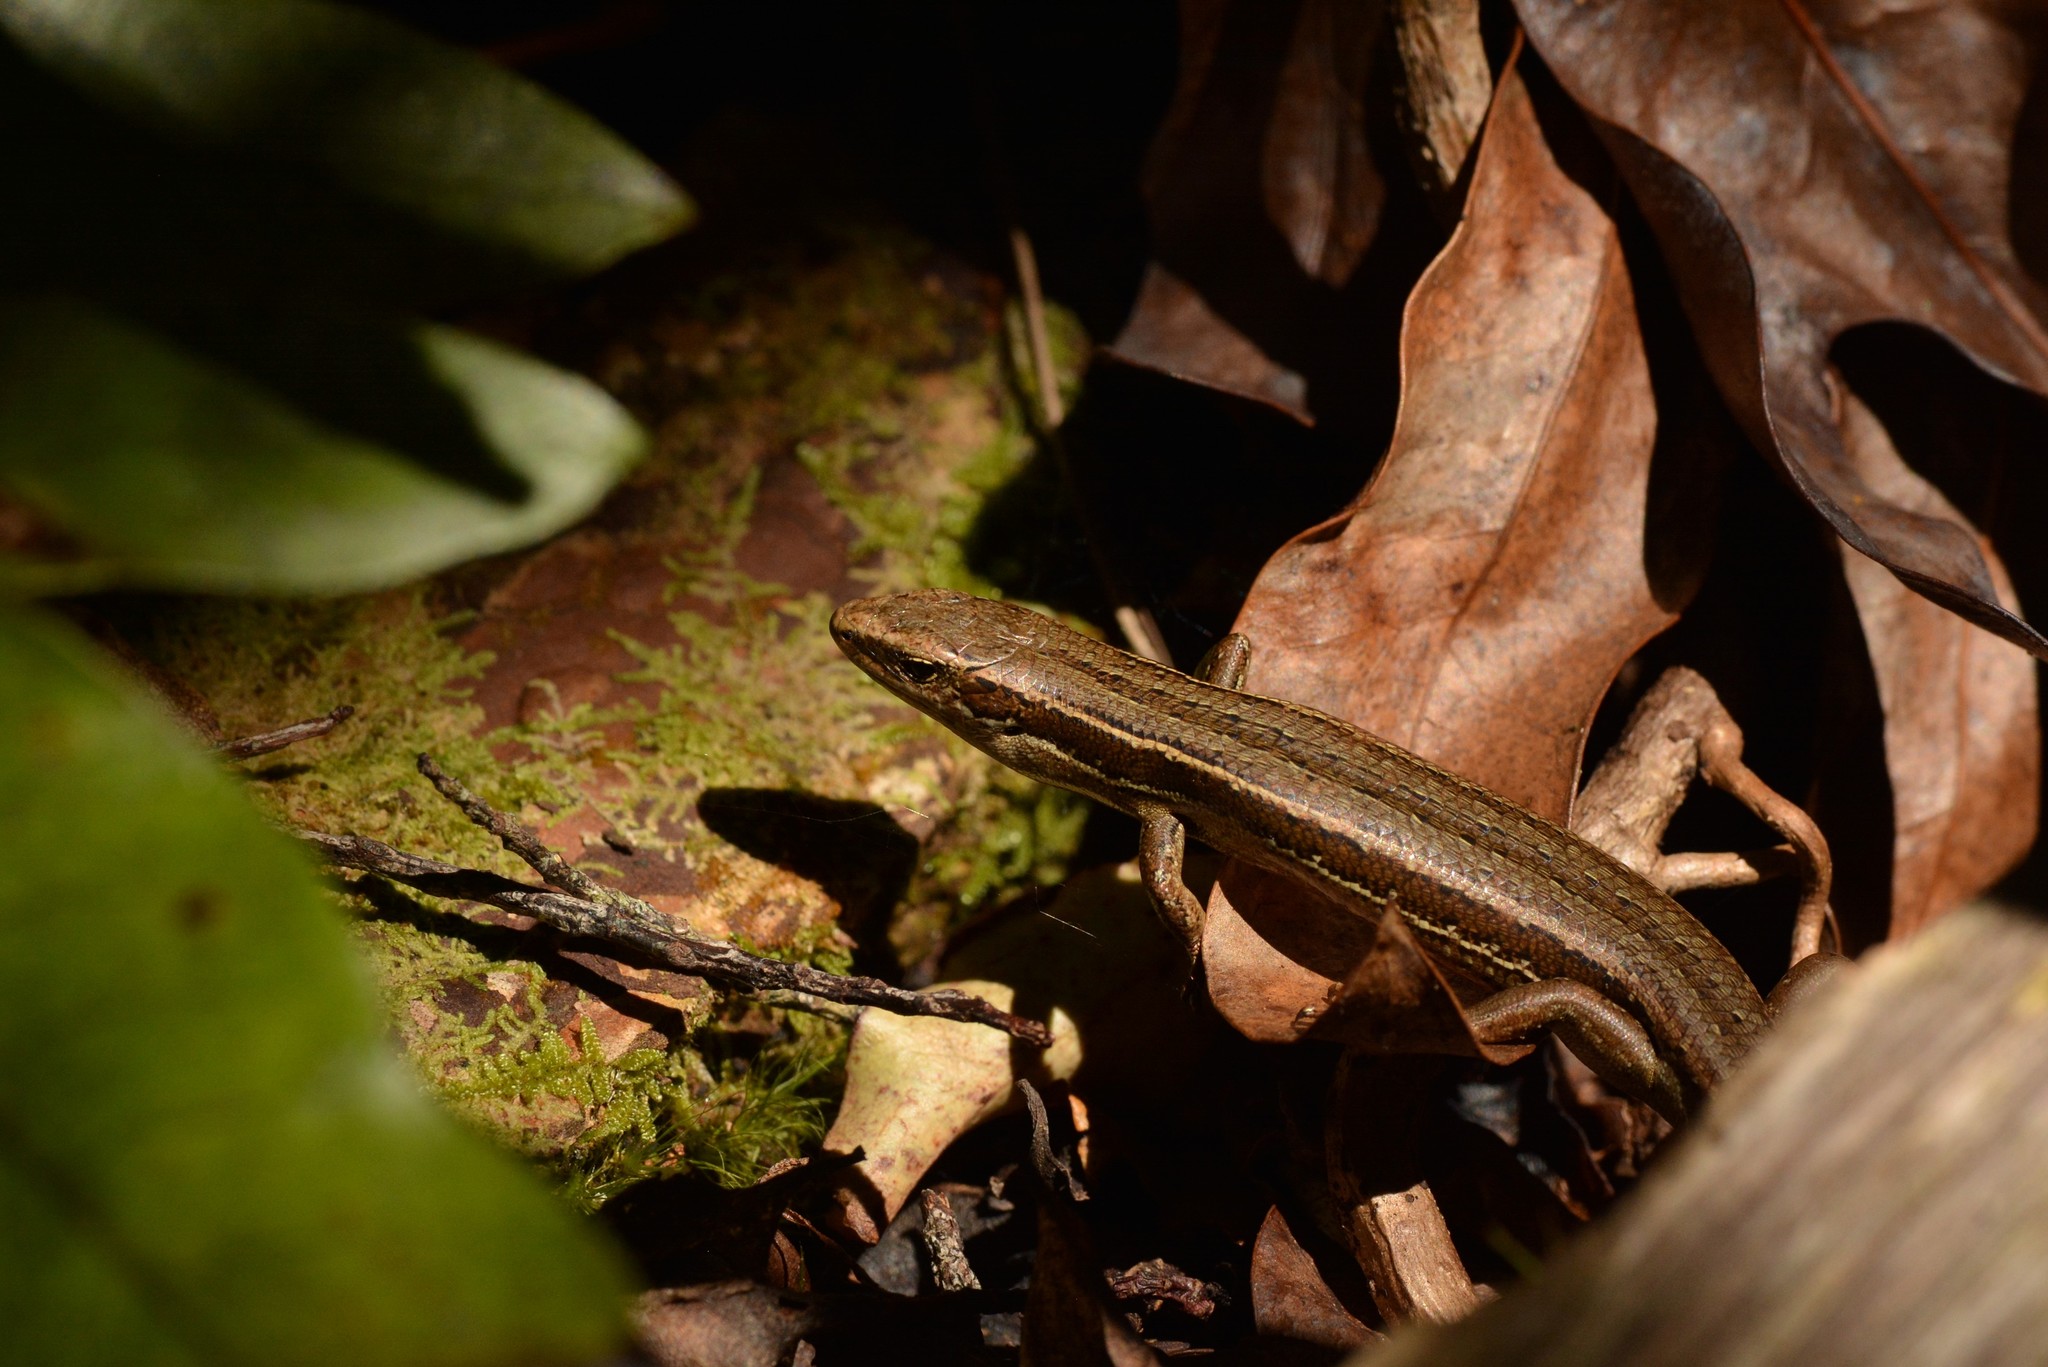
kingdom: Animalia
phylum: Chordata
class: Squamata
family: Scincidae
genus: Oligosoma
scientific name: Oligosoma polychroma
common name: Common new zealand skink
